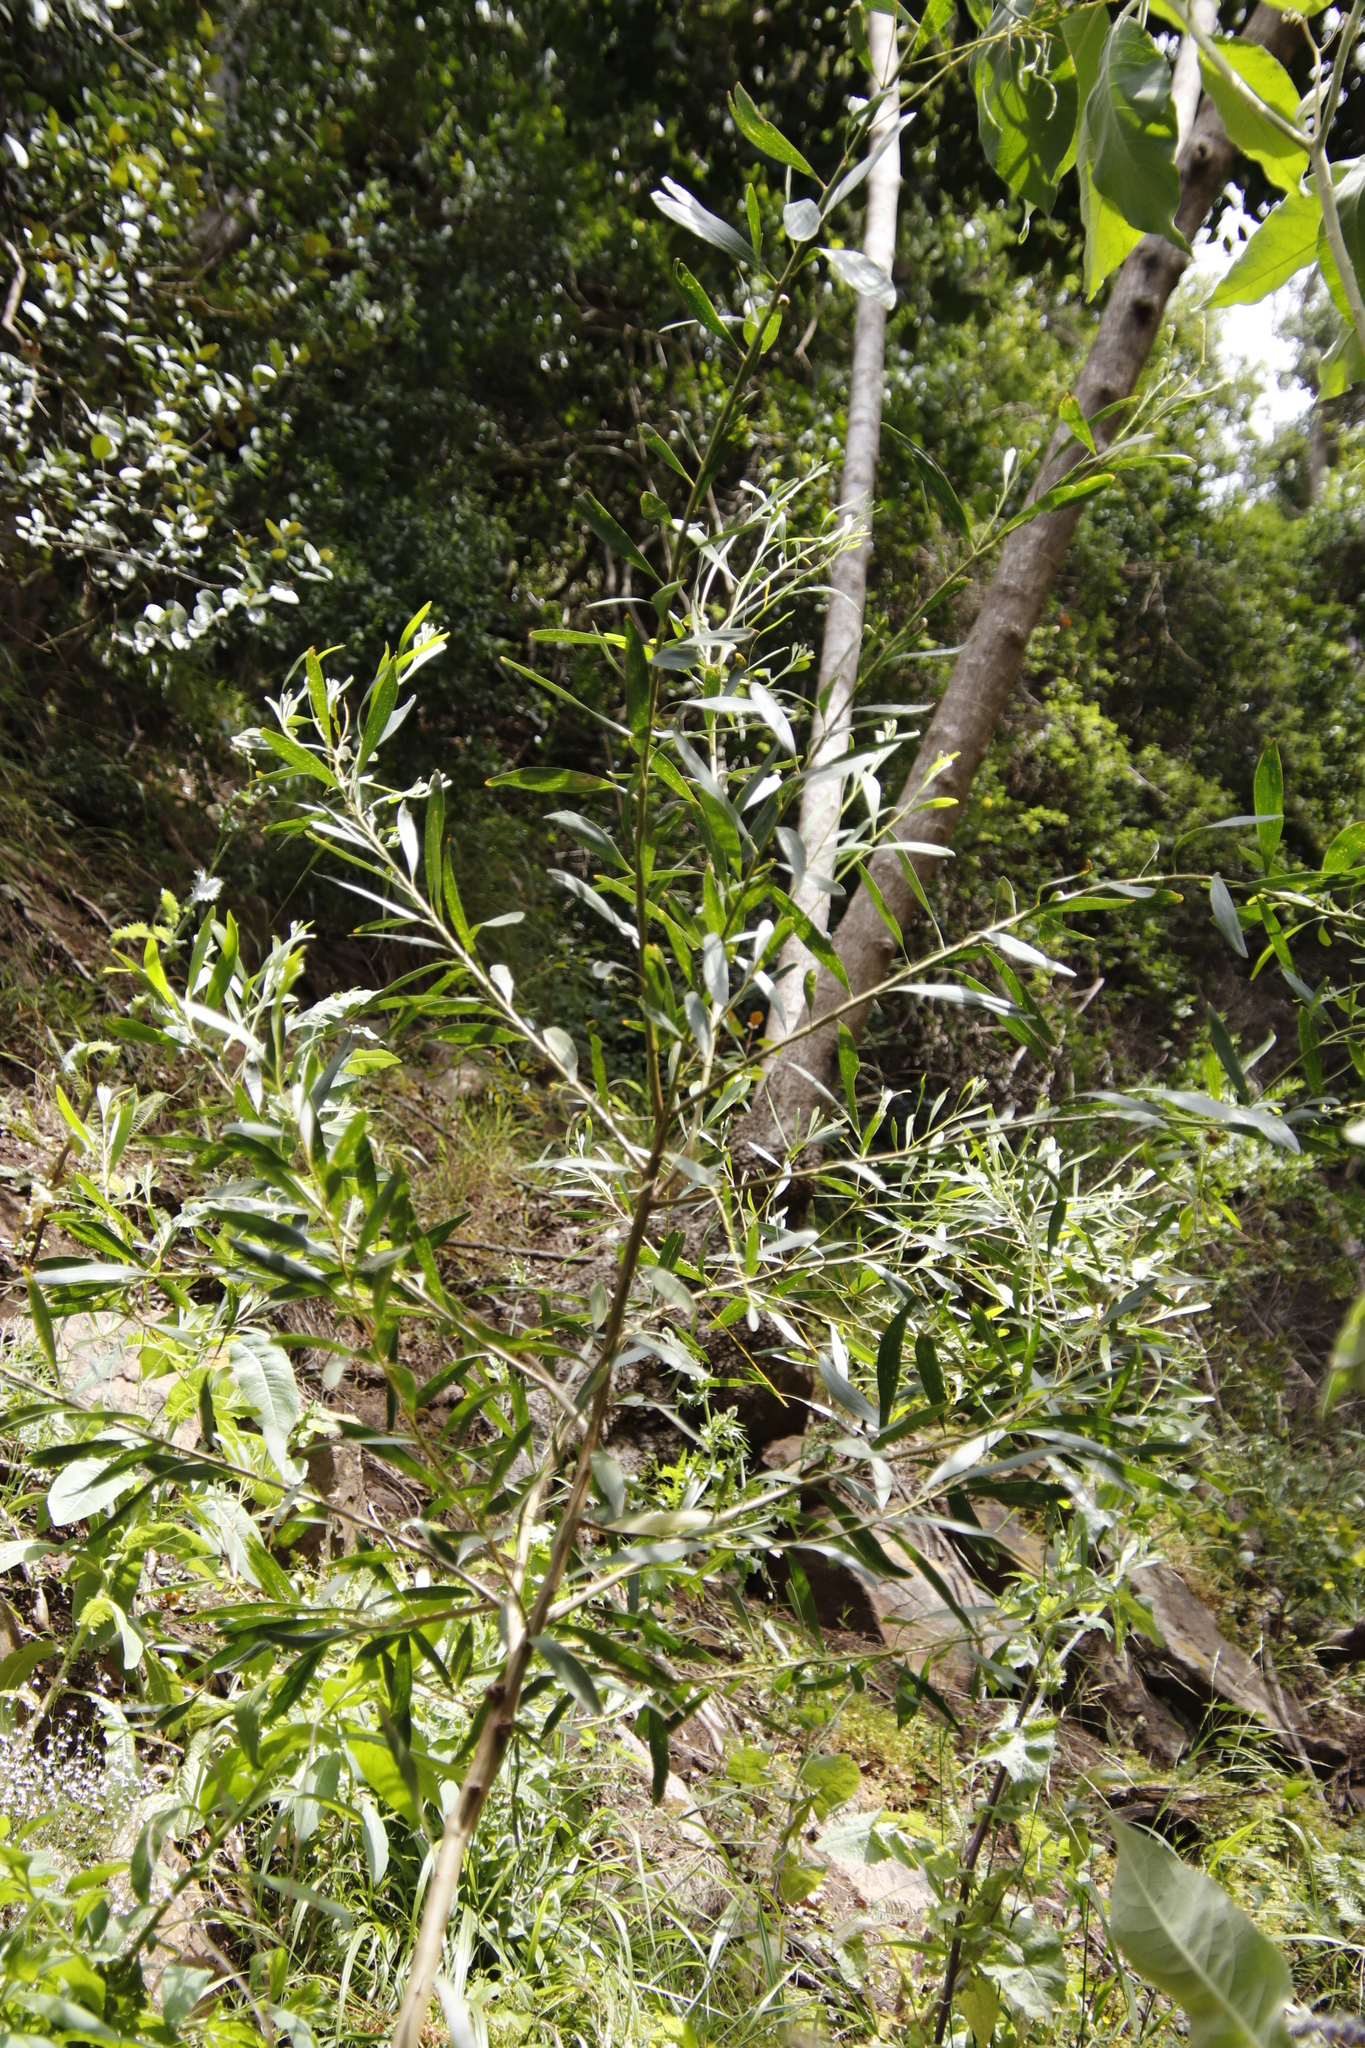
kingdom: Plantae
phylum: Tracheophyta
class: Magnoliopsida
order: Fabales
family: Fabaceae
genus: Acacia
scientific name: Acacia melanoxylon
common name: Blackwood
